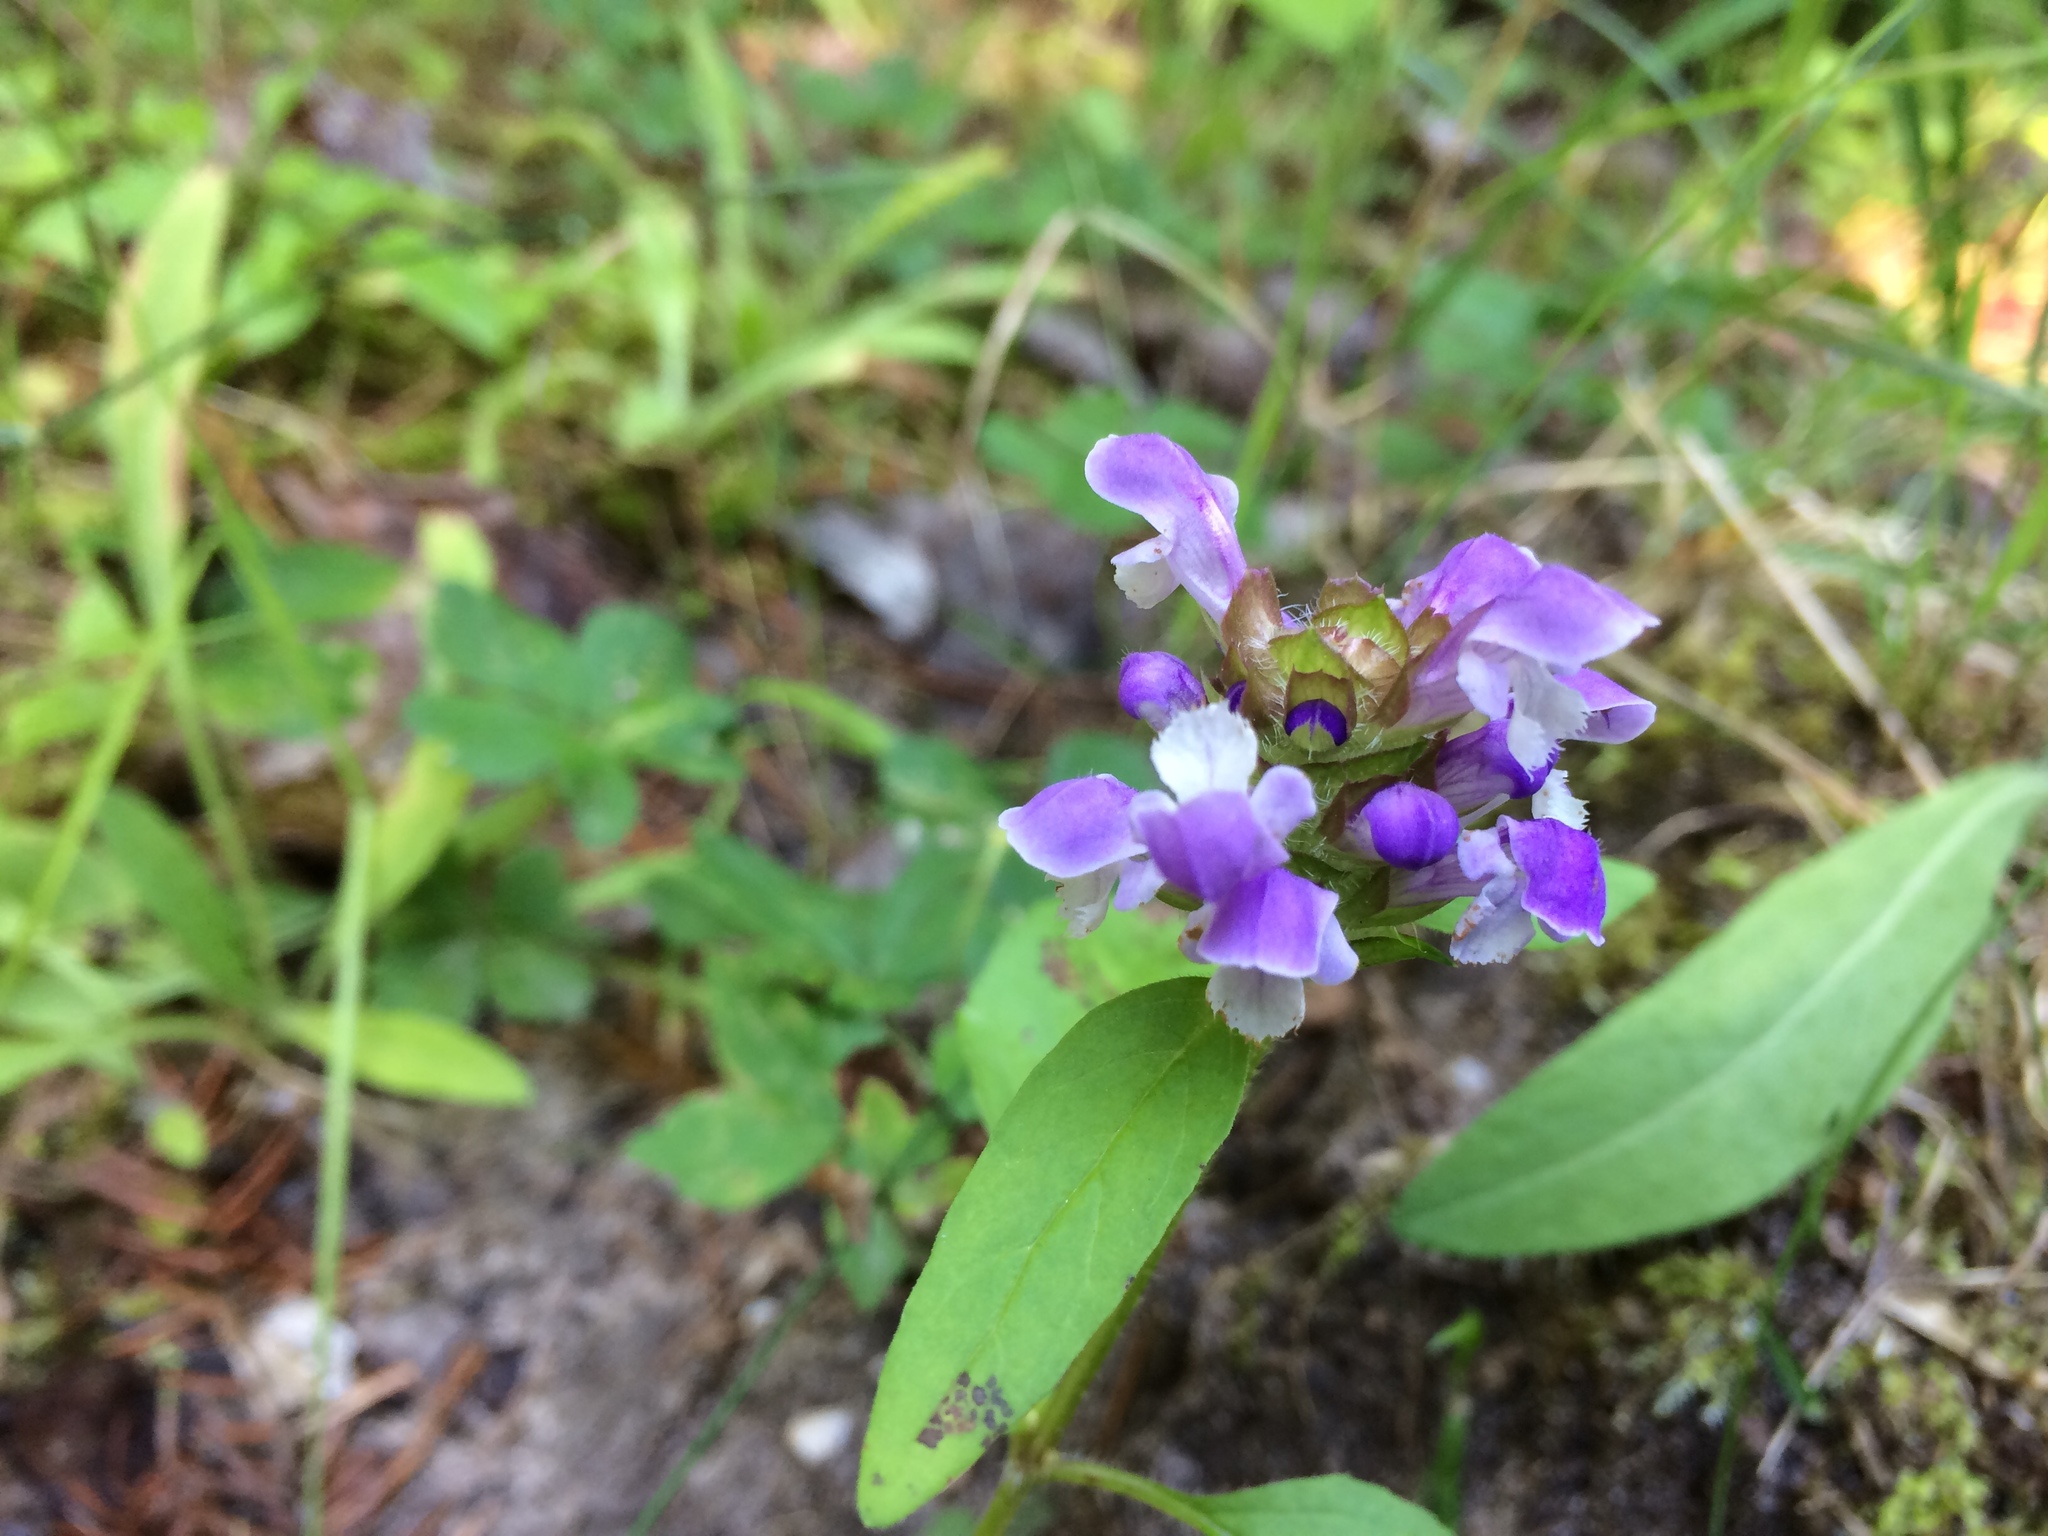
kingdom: Plantae
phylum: Tracheophyta
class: Magnoliopsida
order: Lamiales
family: Lamiaceae
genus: Prunella
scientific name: Prunella vulgaris
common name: Heal-all
